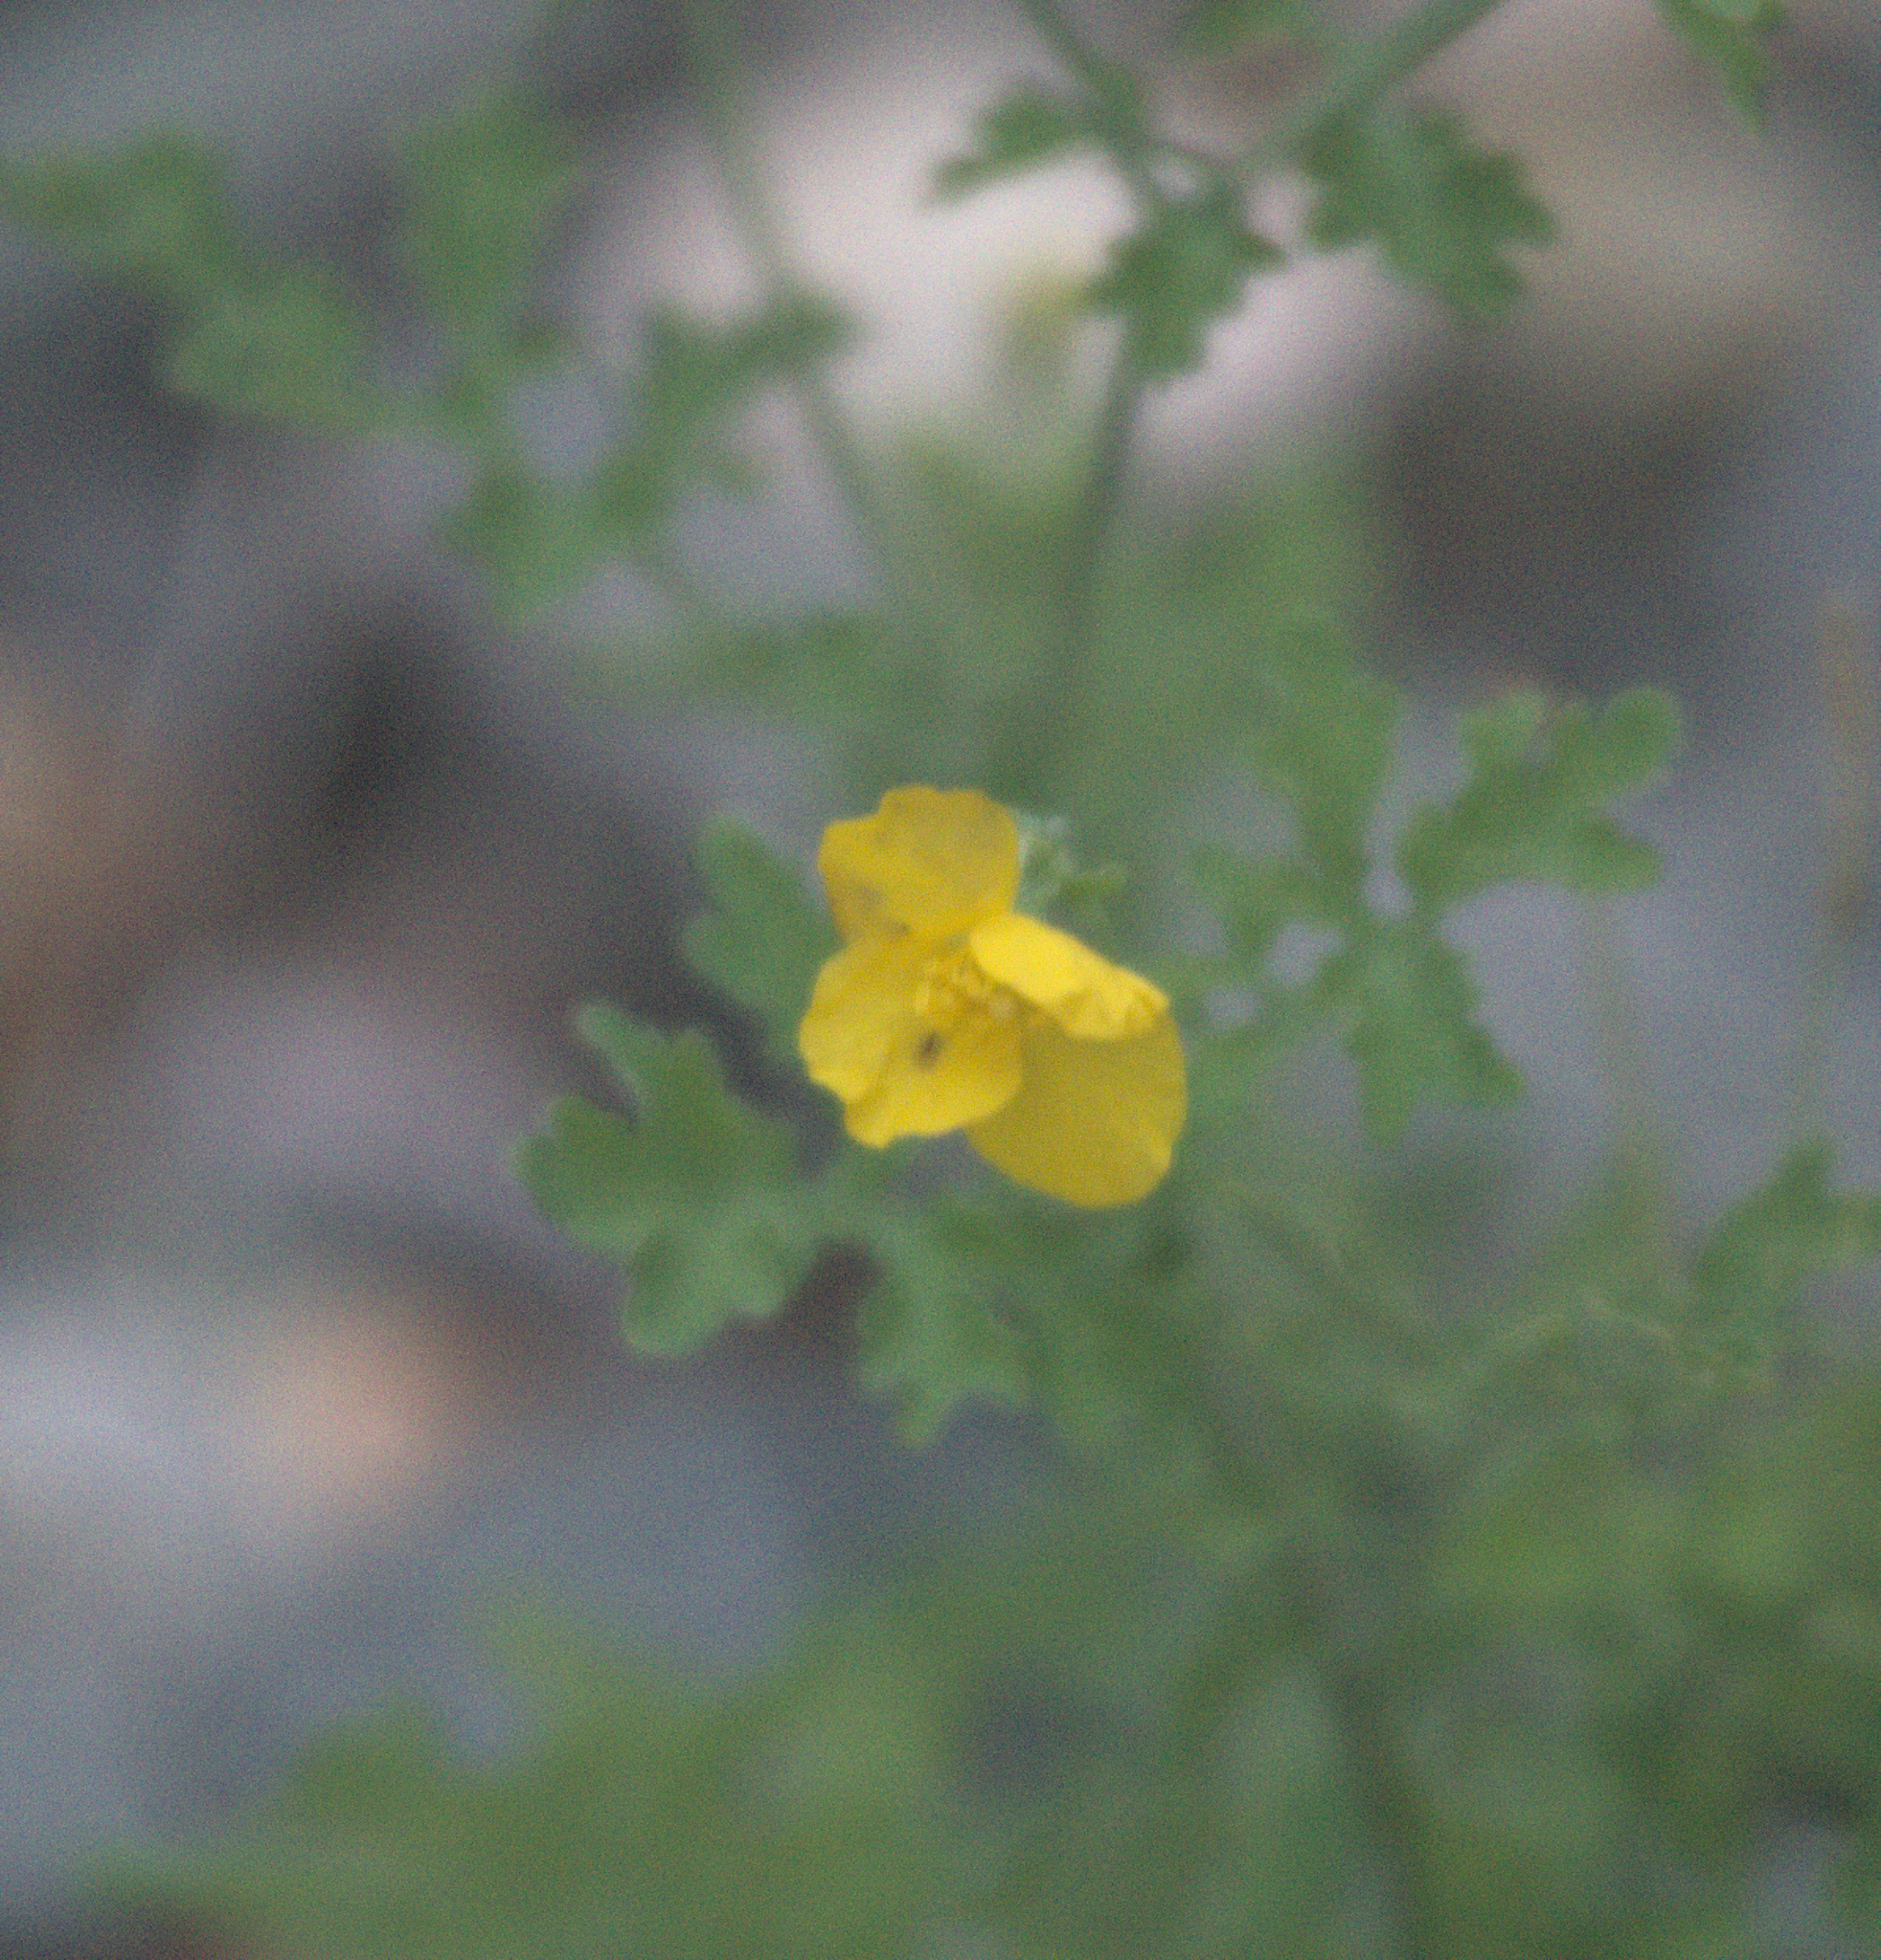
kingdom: Plantae
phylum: Tracheophyta
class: Magnoliopsida
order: Ranunculales
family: Papaveraceae
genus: Chelidonium
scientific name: Chelidonium majus
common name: Greater celandine
